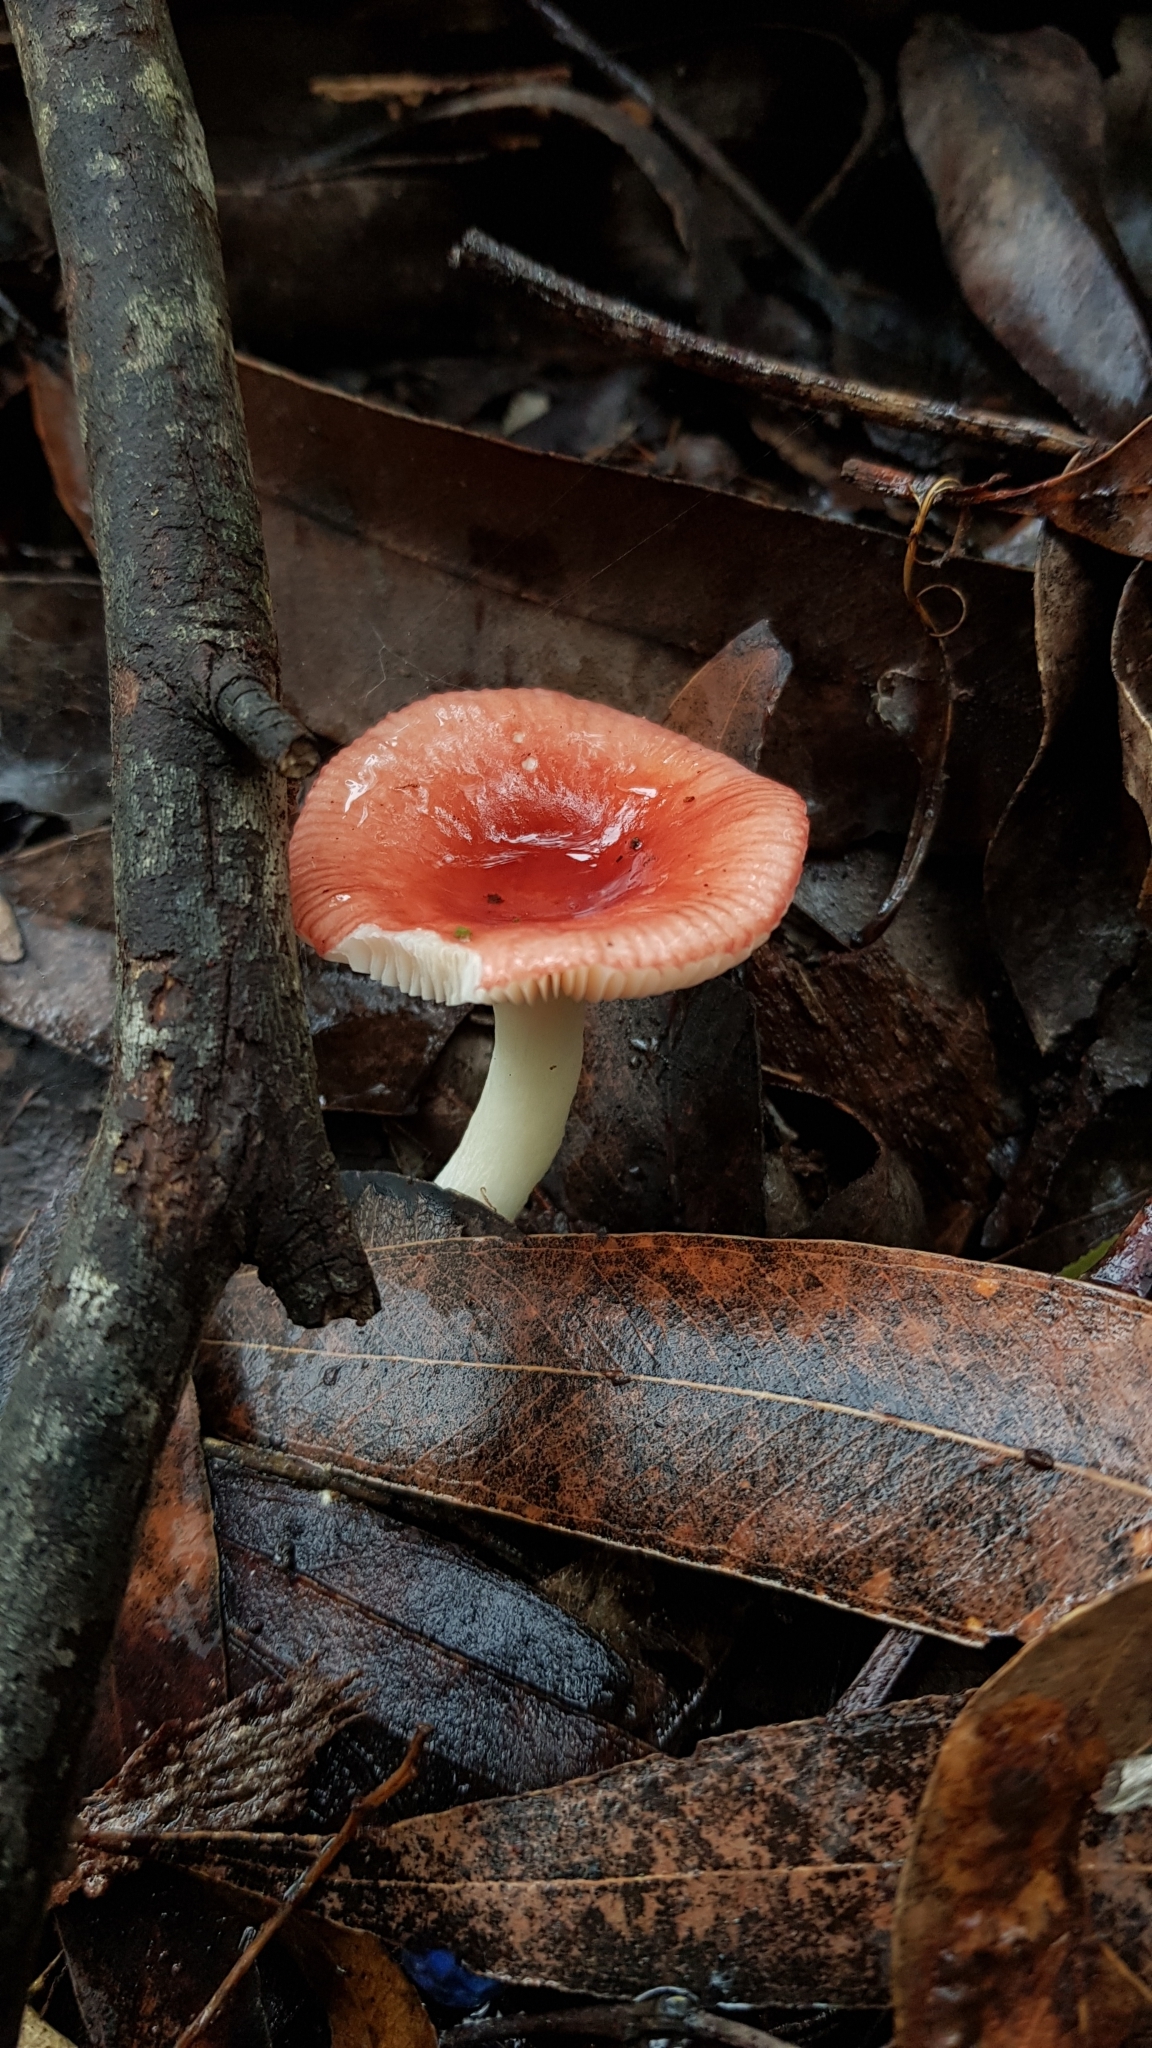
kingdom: Fungi
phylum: Basidiomycota
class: Agaricomycetes
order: Russulales
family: Russulaceae
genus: Russula
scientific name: Russula persanguinea
